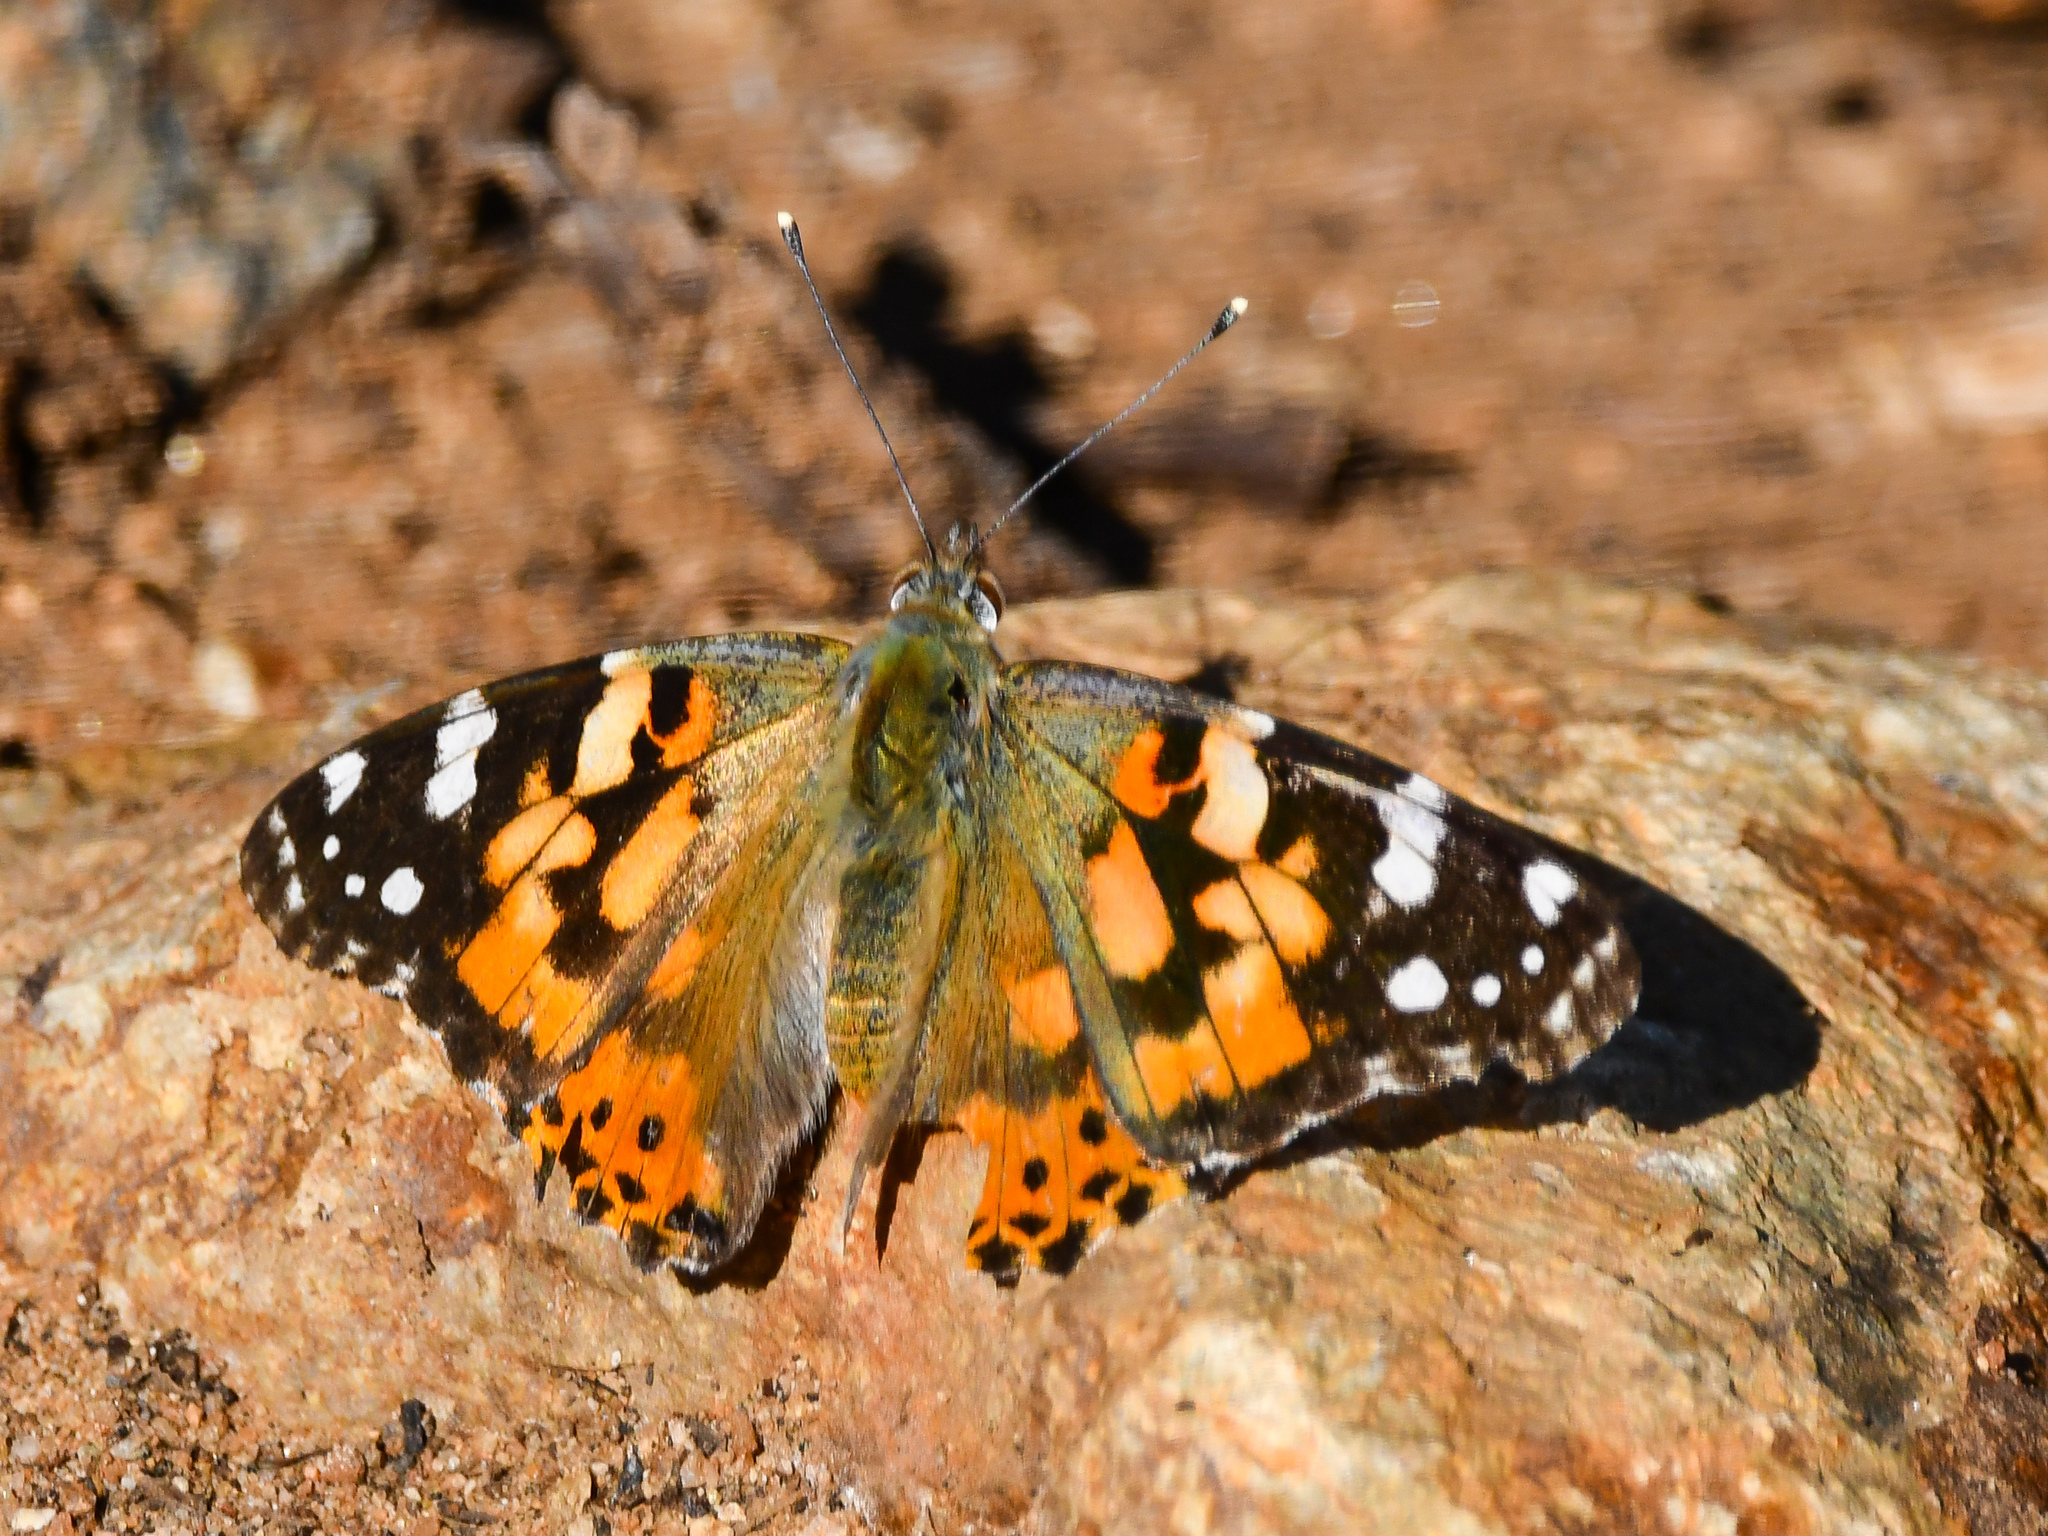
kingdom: Animalia
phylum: Arthropoda
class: Insecta
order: Lepidoptera
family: Nymphalidae
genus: Vanessa
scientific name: Vanessa cardui
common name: Painted lady
